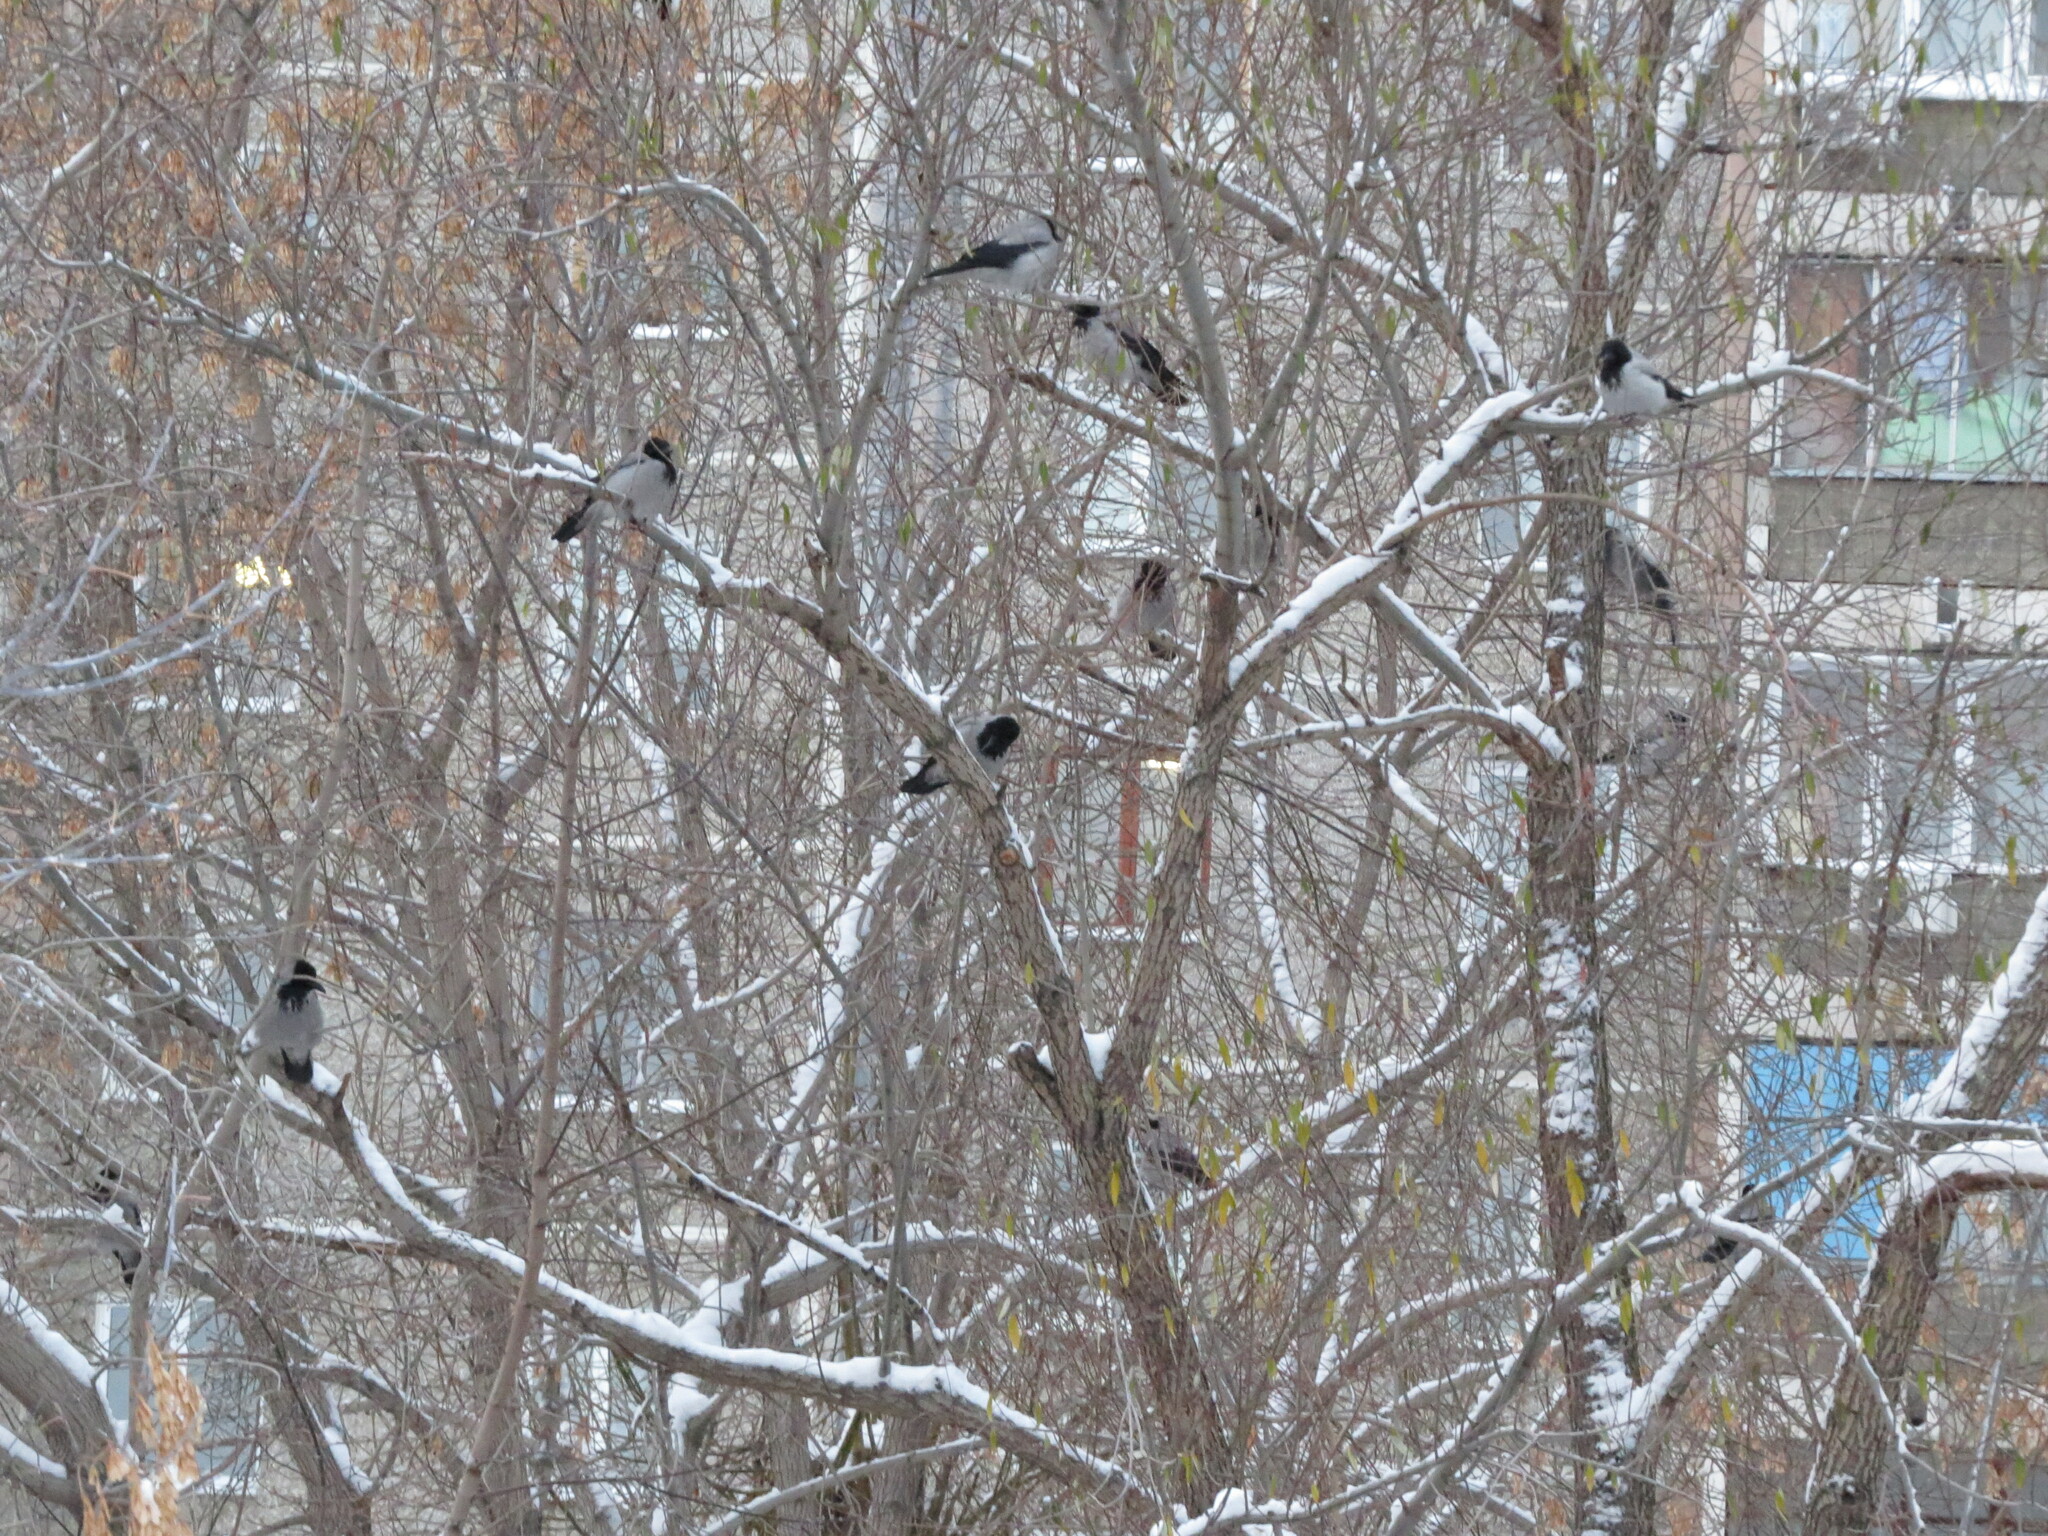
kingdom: Animalia
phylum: Chordata
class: Aves
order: Passeriformes
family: Corvidae
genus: Corvus
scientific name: Corvus cornix
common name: Hooded crow
